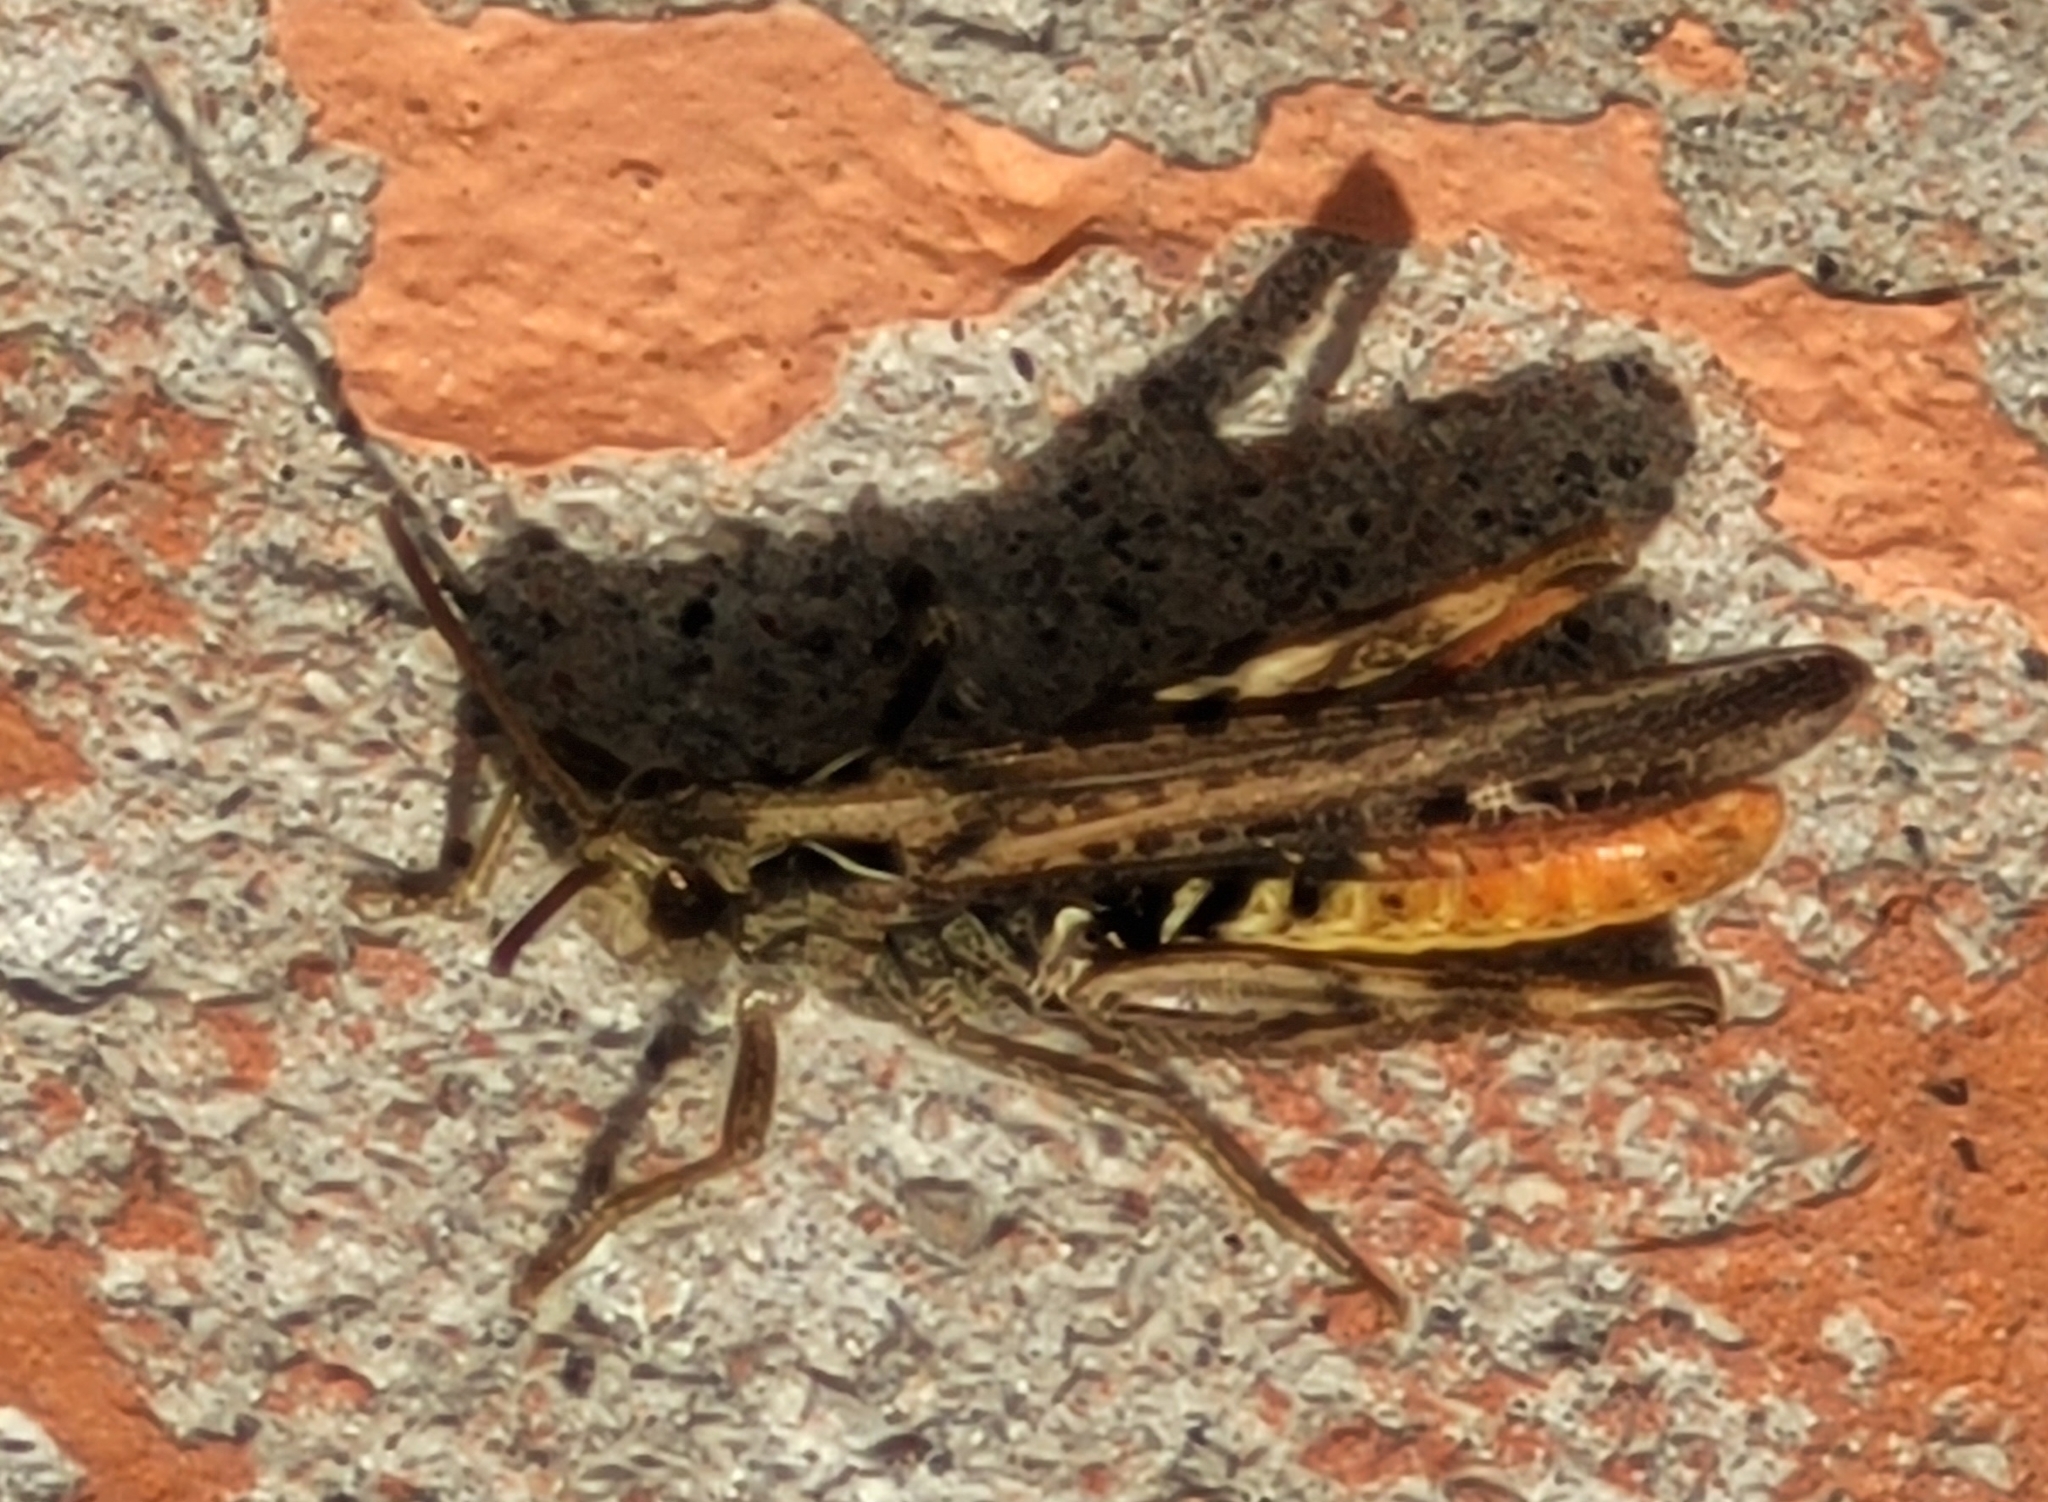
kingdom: Animalia
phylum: Arthropoda
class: Insecta
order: Orthoptera
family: Acrididae
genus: Chorthippus
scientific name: Chorthippus brunneus
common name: Field grasshopper
